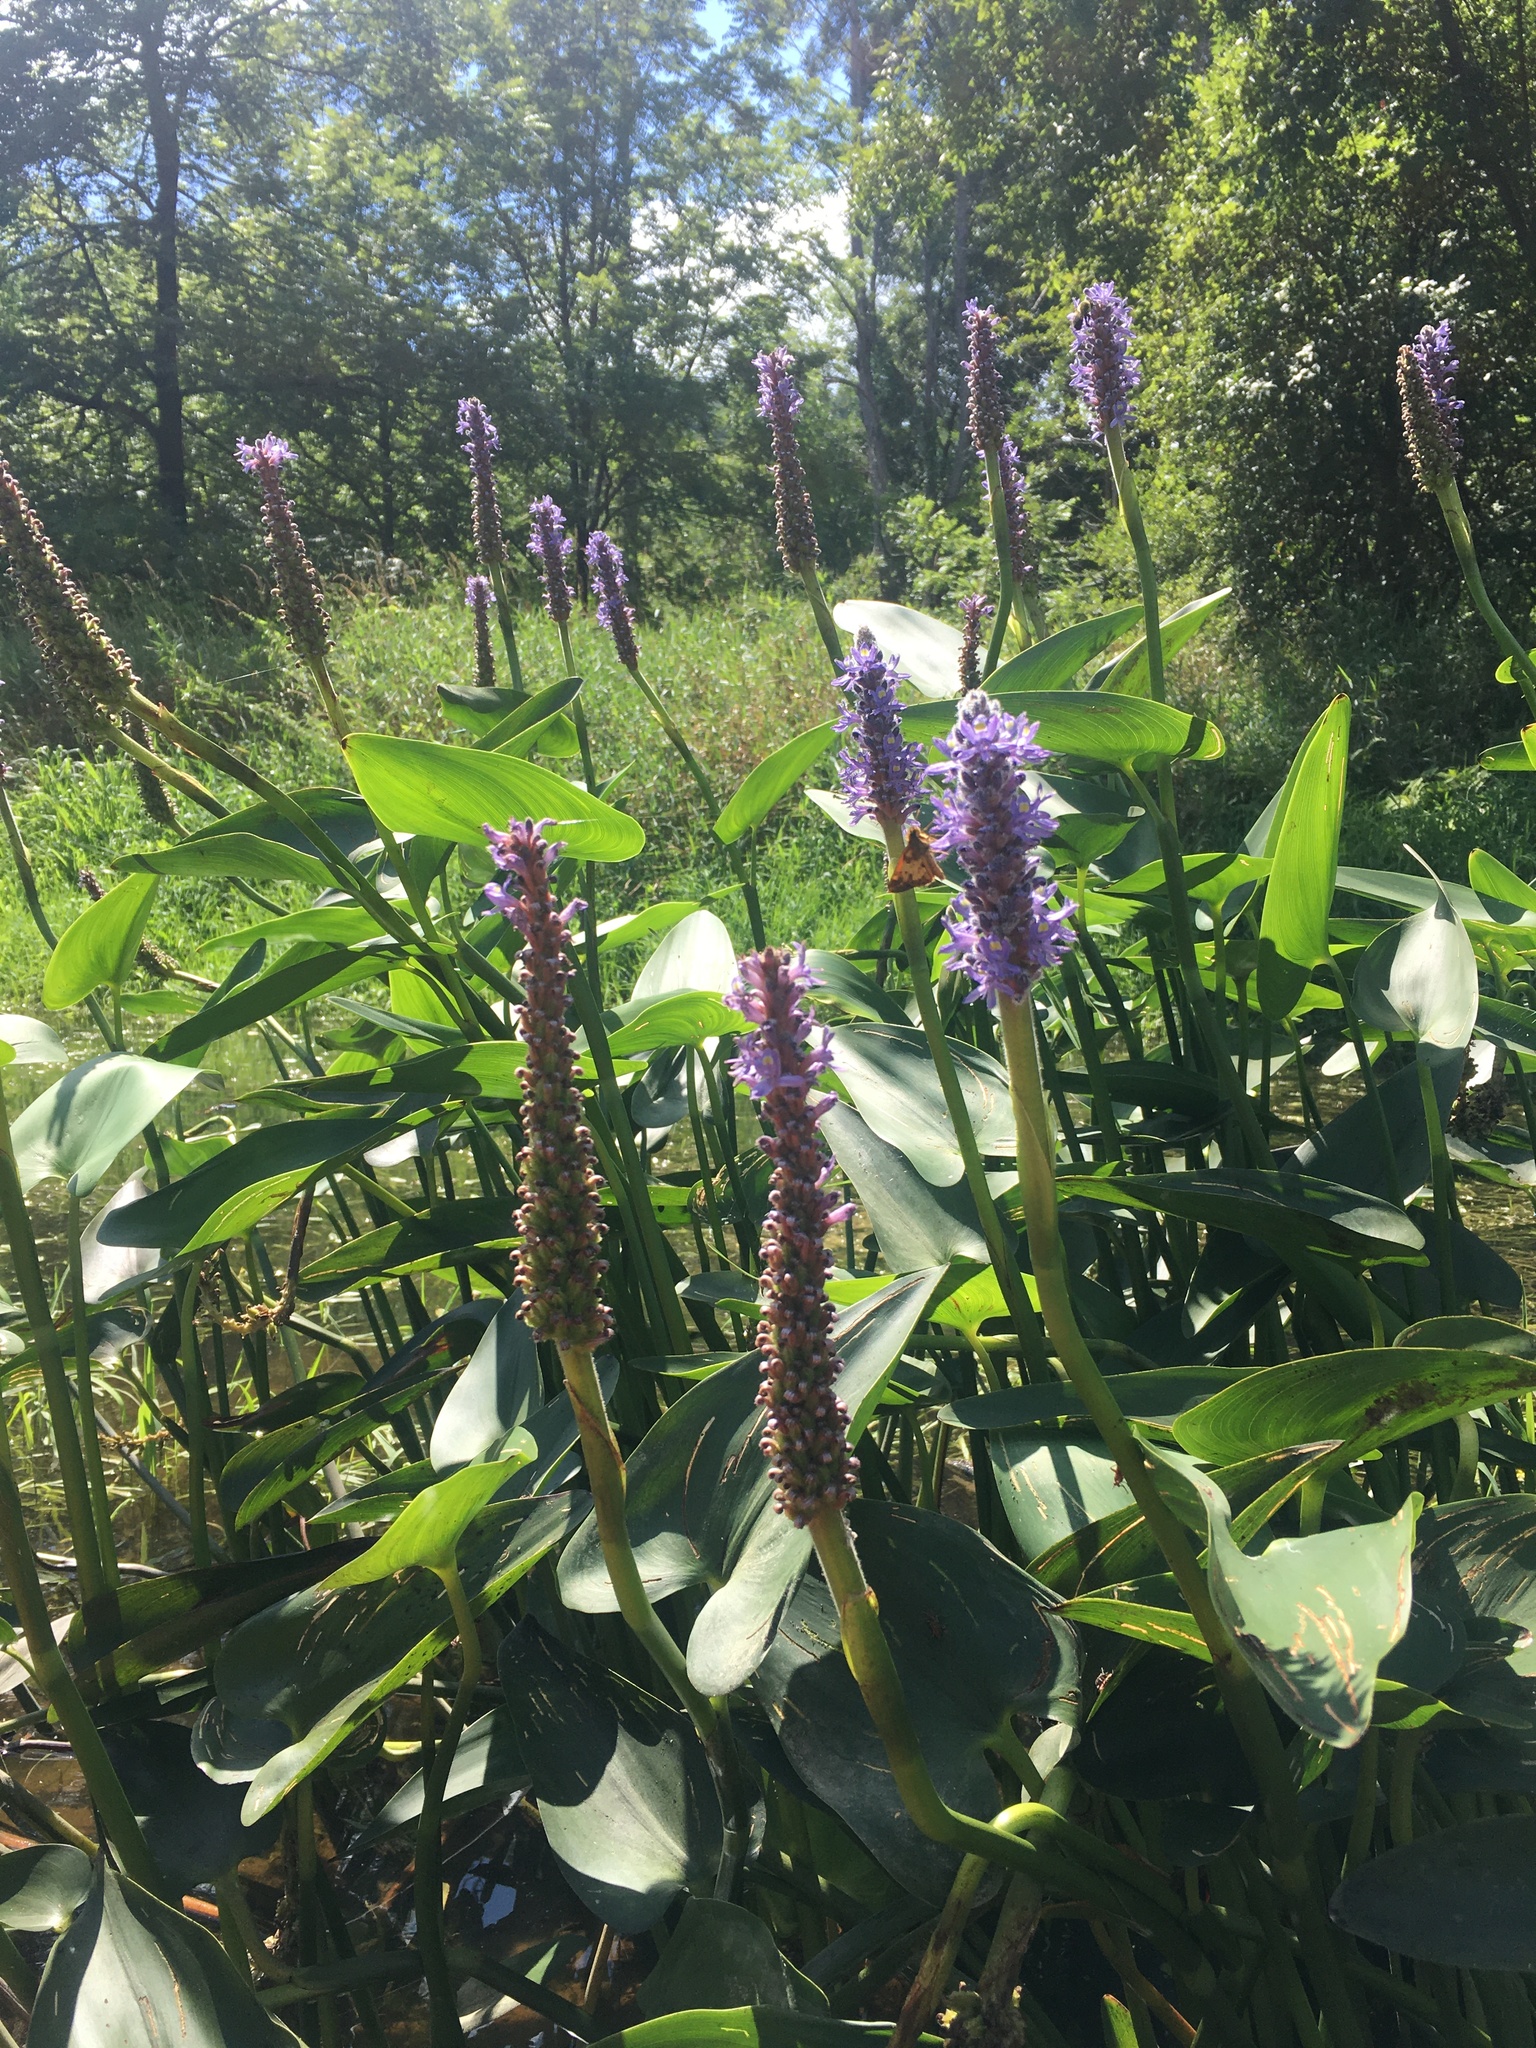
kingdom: Plantae
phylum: Tracheophyta
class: Liliopsida
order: Commelinales
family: Pontederiaceae
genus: Pontederia
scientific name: Pontederia cordata
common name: Pickerelweed
